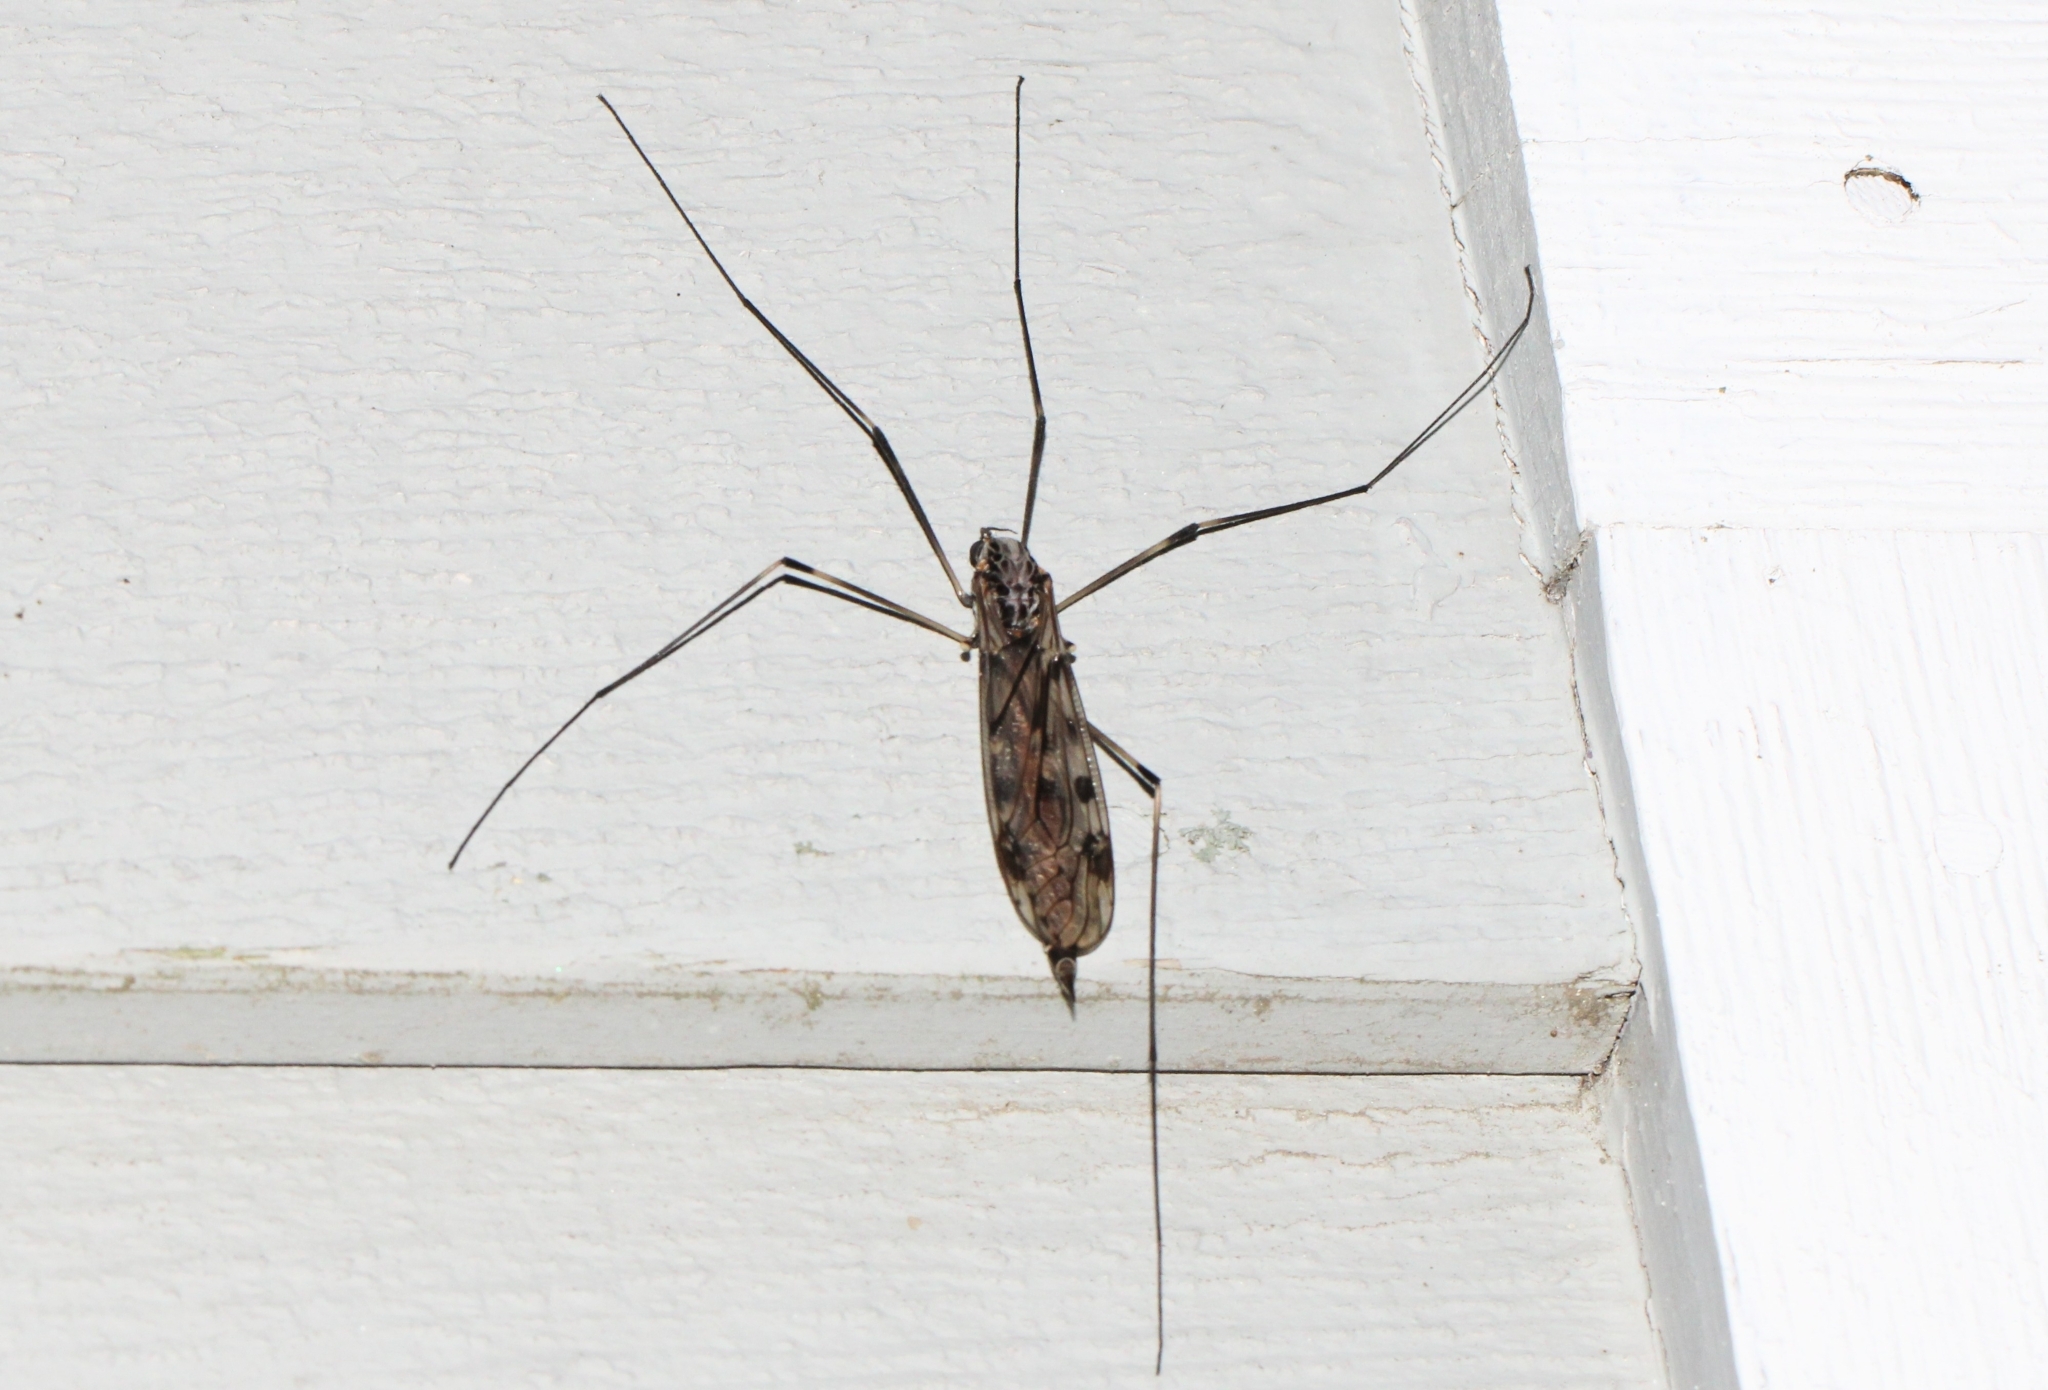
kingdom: Animalia
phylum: Arthropoda
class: Insecta
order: Diptera
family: Tipulidae
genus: Tipula
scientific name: Tipula abdominalis
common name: Giant crane fly
